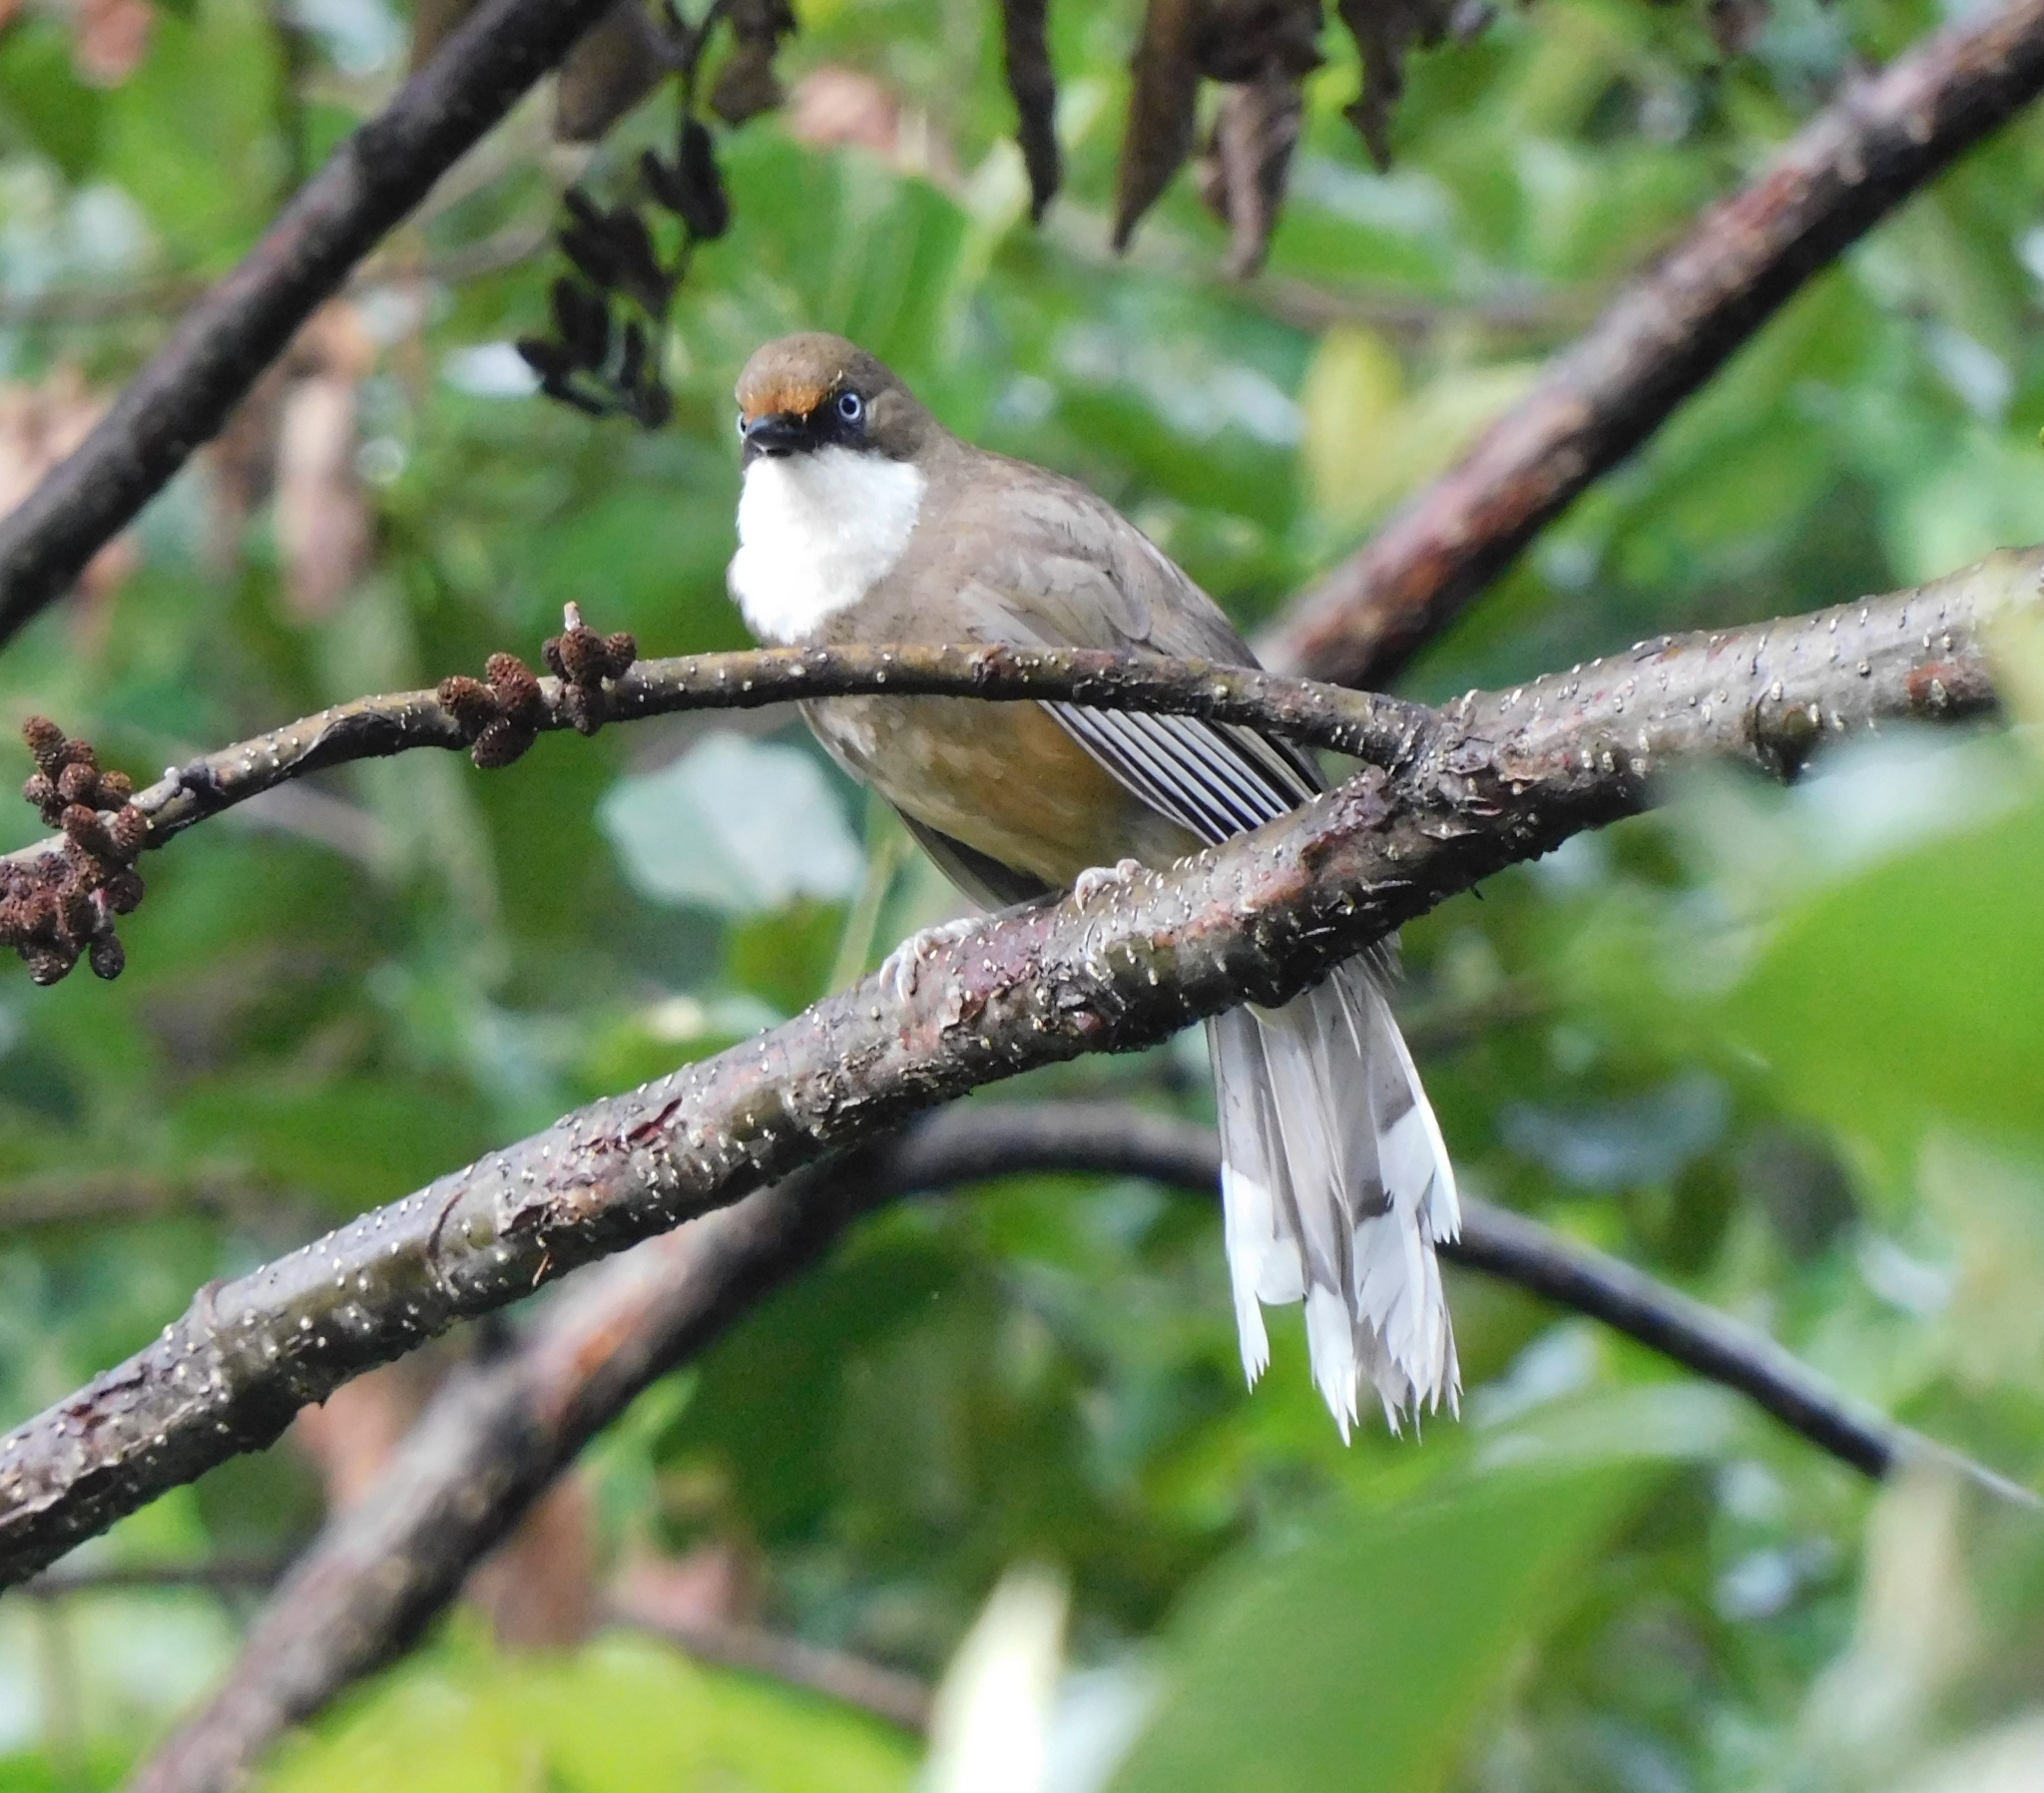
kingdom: Animalia
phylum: Chordata
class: Aves
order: Passeriformes
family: Leiothrichidae
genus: Garrulax
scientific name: Garrulax albogularis
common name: White-throated laughingthrush
